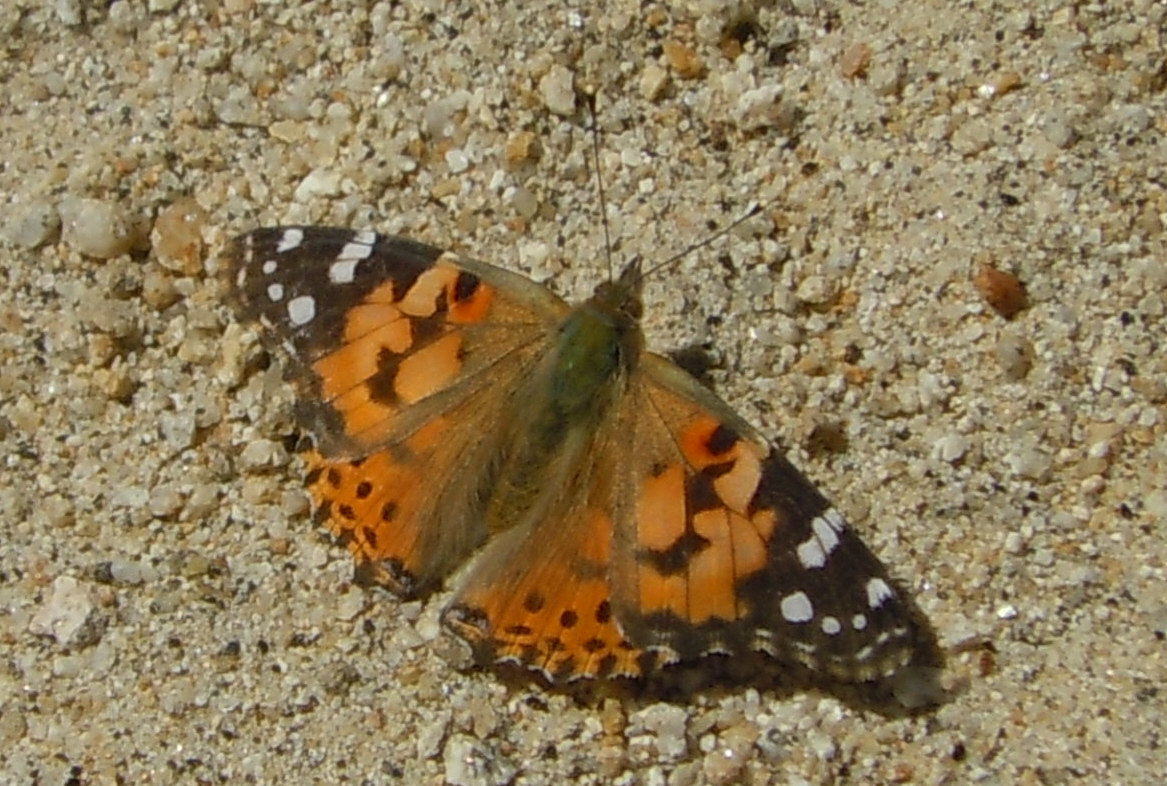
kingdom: Animalia
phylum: Arthropoda
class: Insecta
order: Lepidoptera
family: Nymphalidae
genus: Vanessa
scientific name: Vanessa cardui
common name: Painted lady
